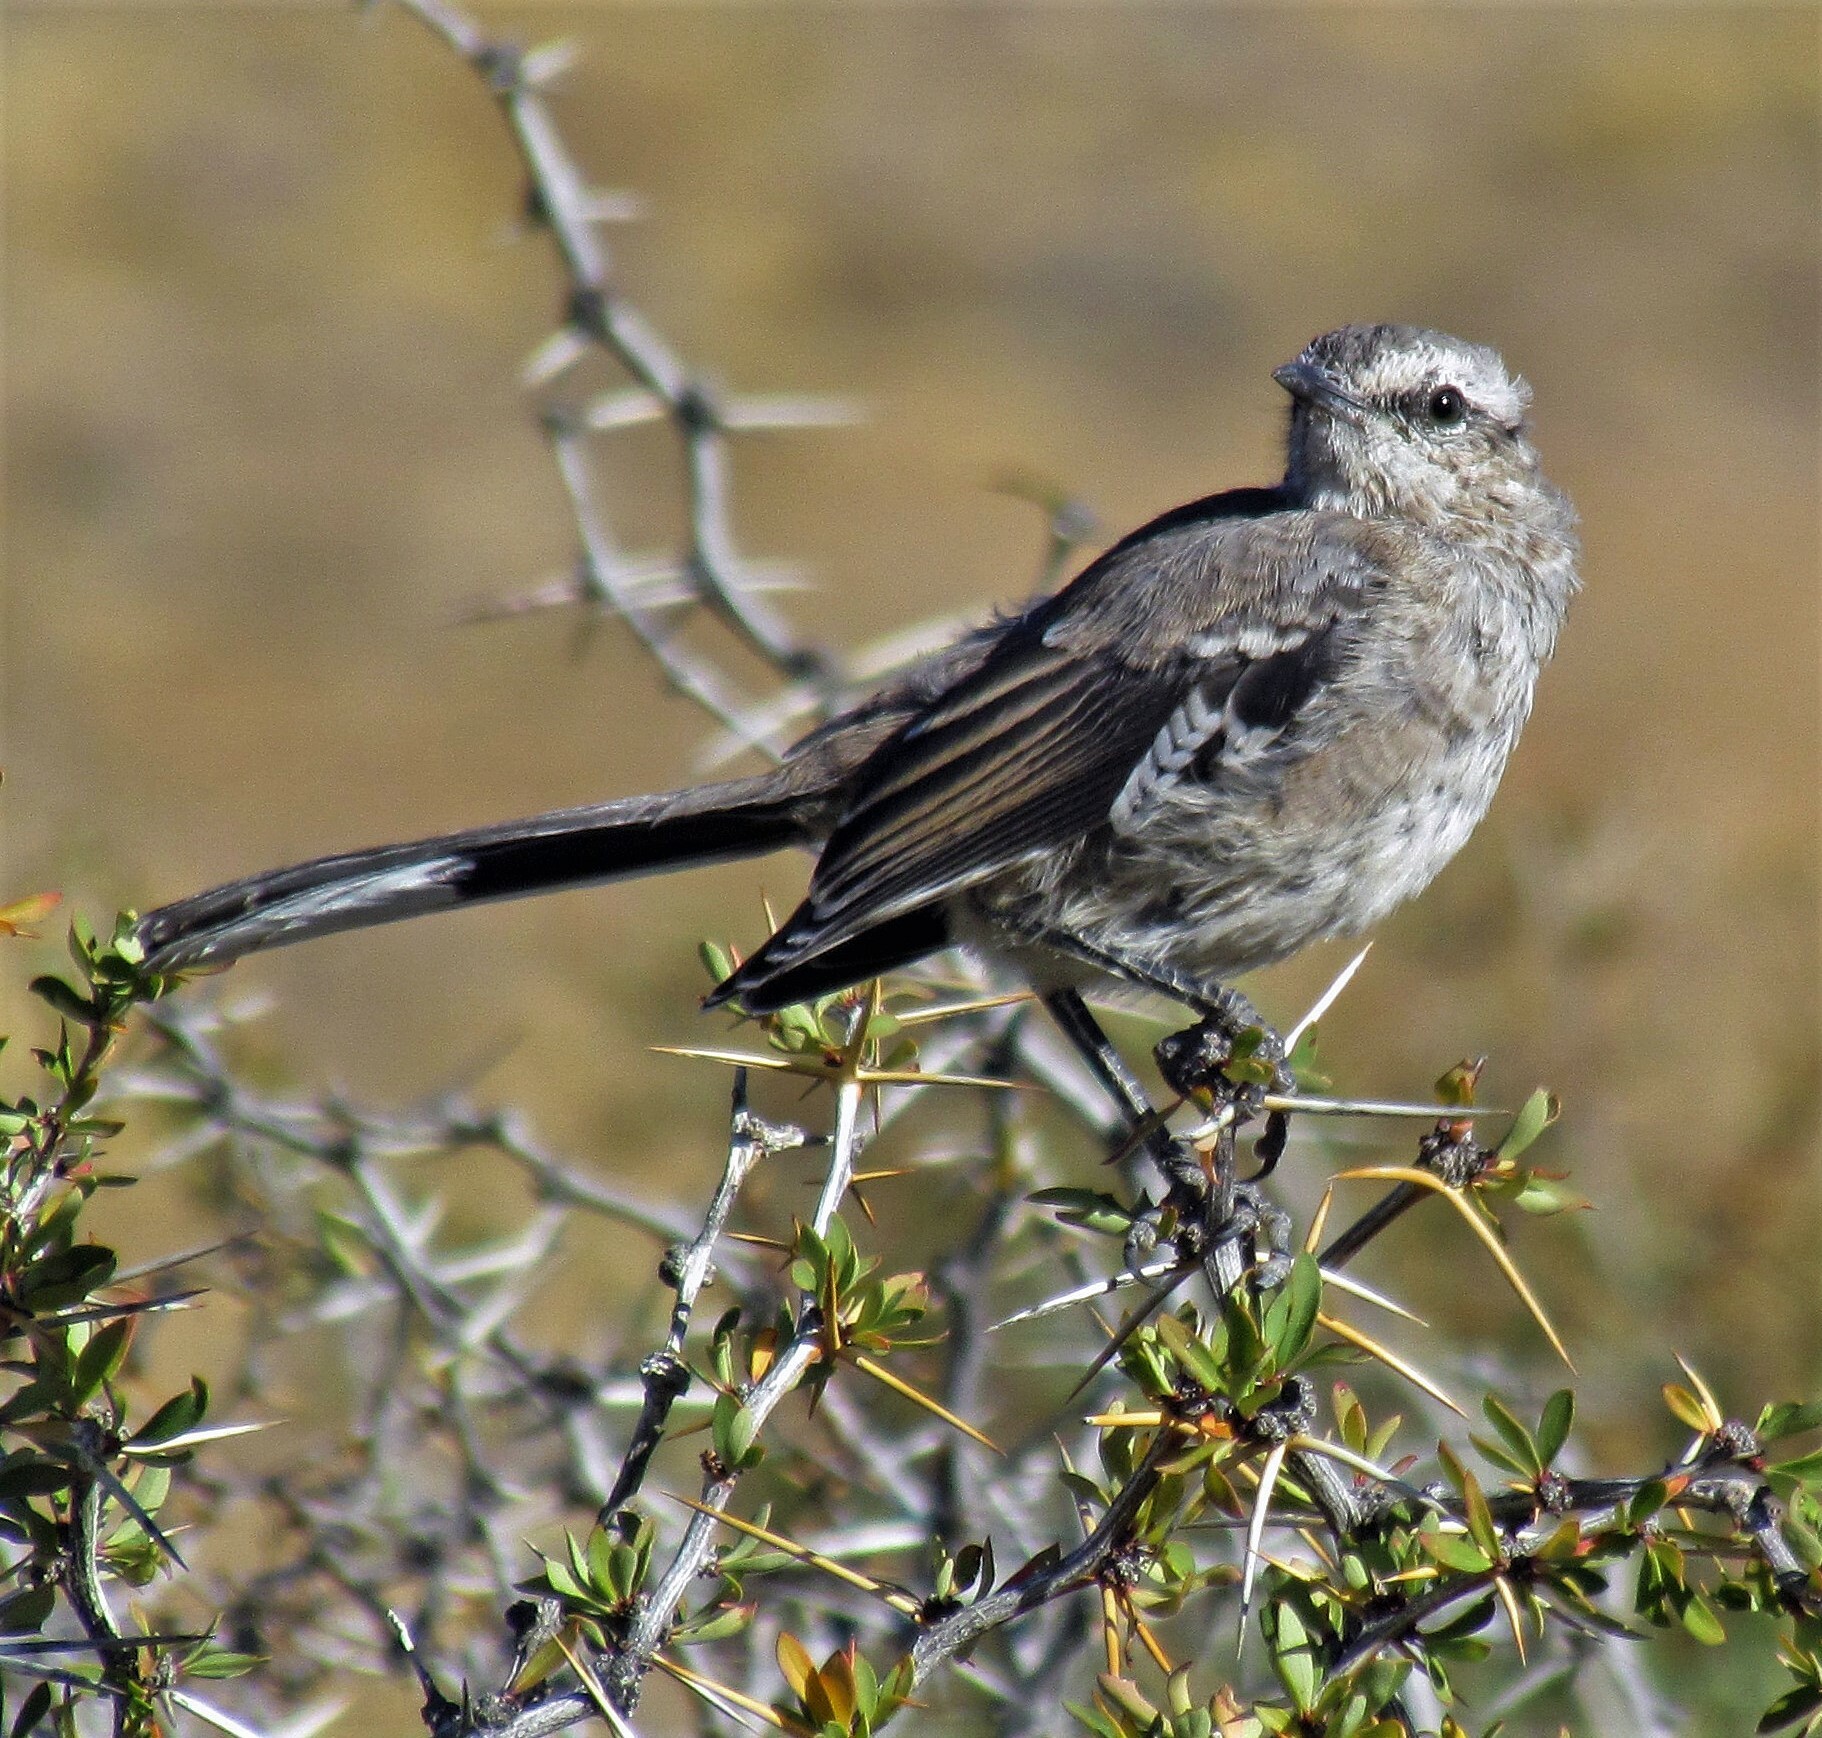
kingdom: Animalia
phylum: Chordata
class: Aves
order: Passeriformes
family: Mimidae
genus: Mimus
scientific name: Mimus patagonicus
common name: Patagonian mockingbird
